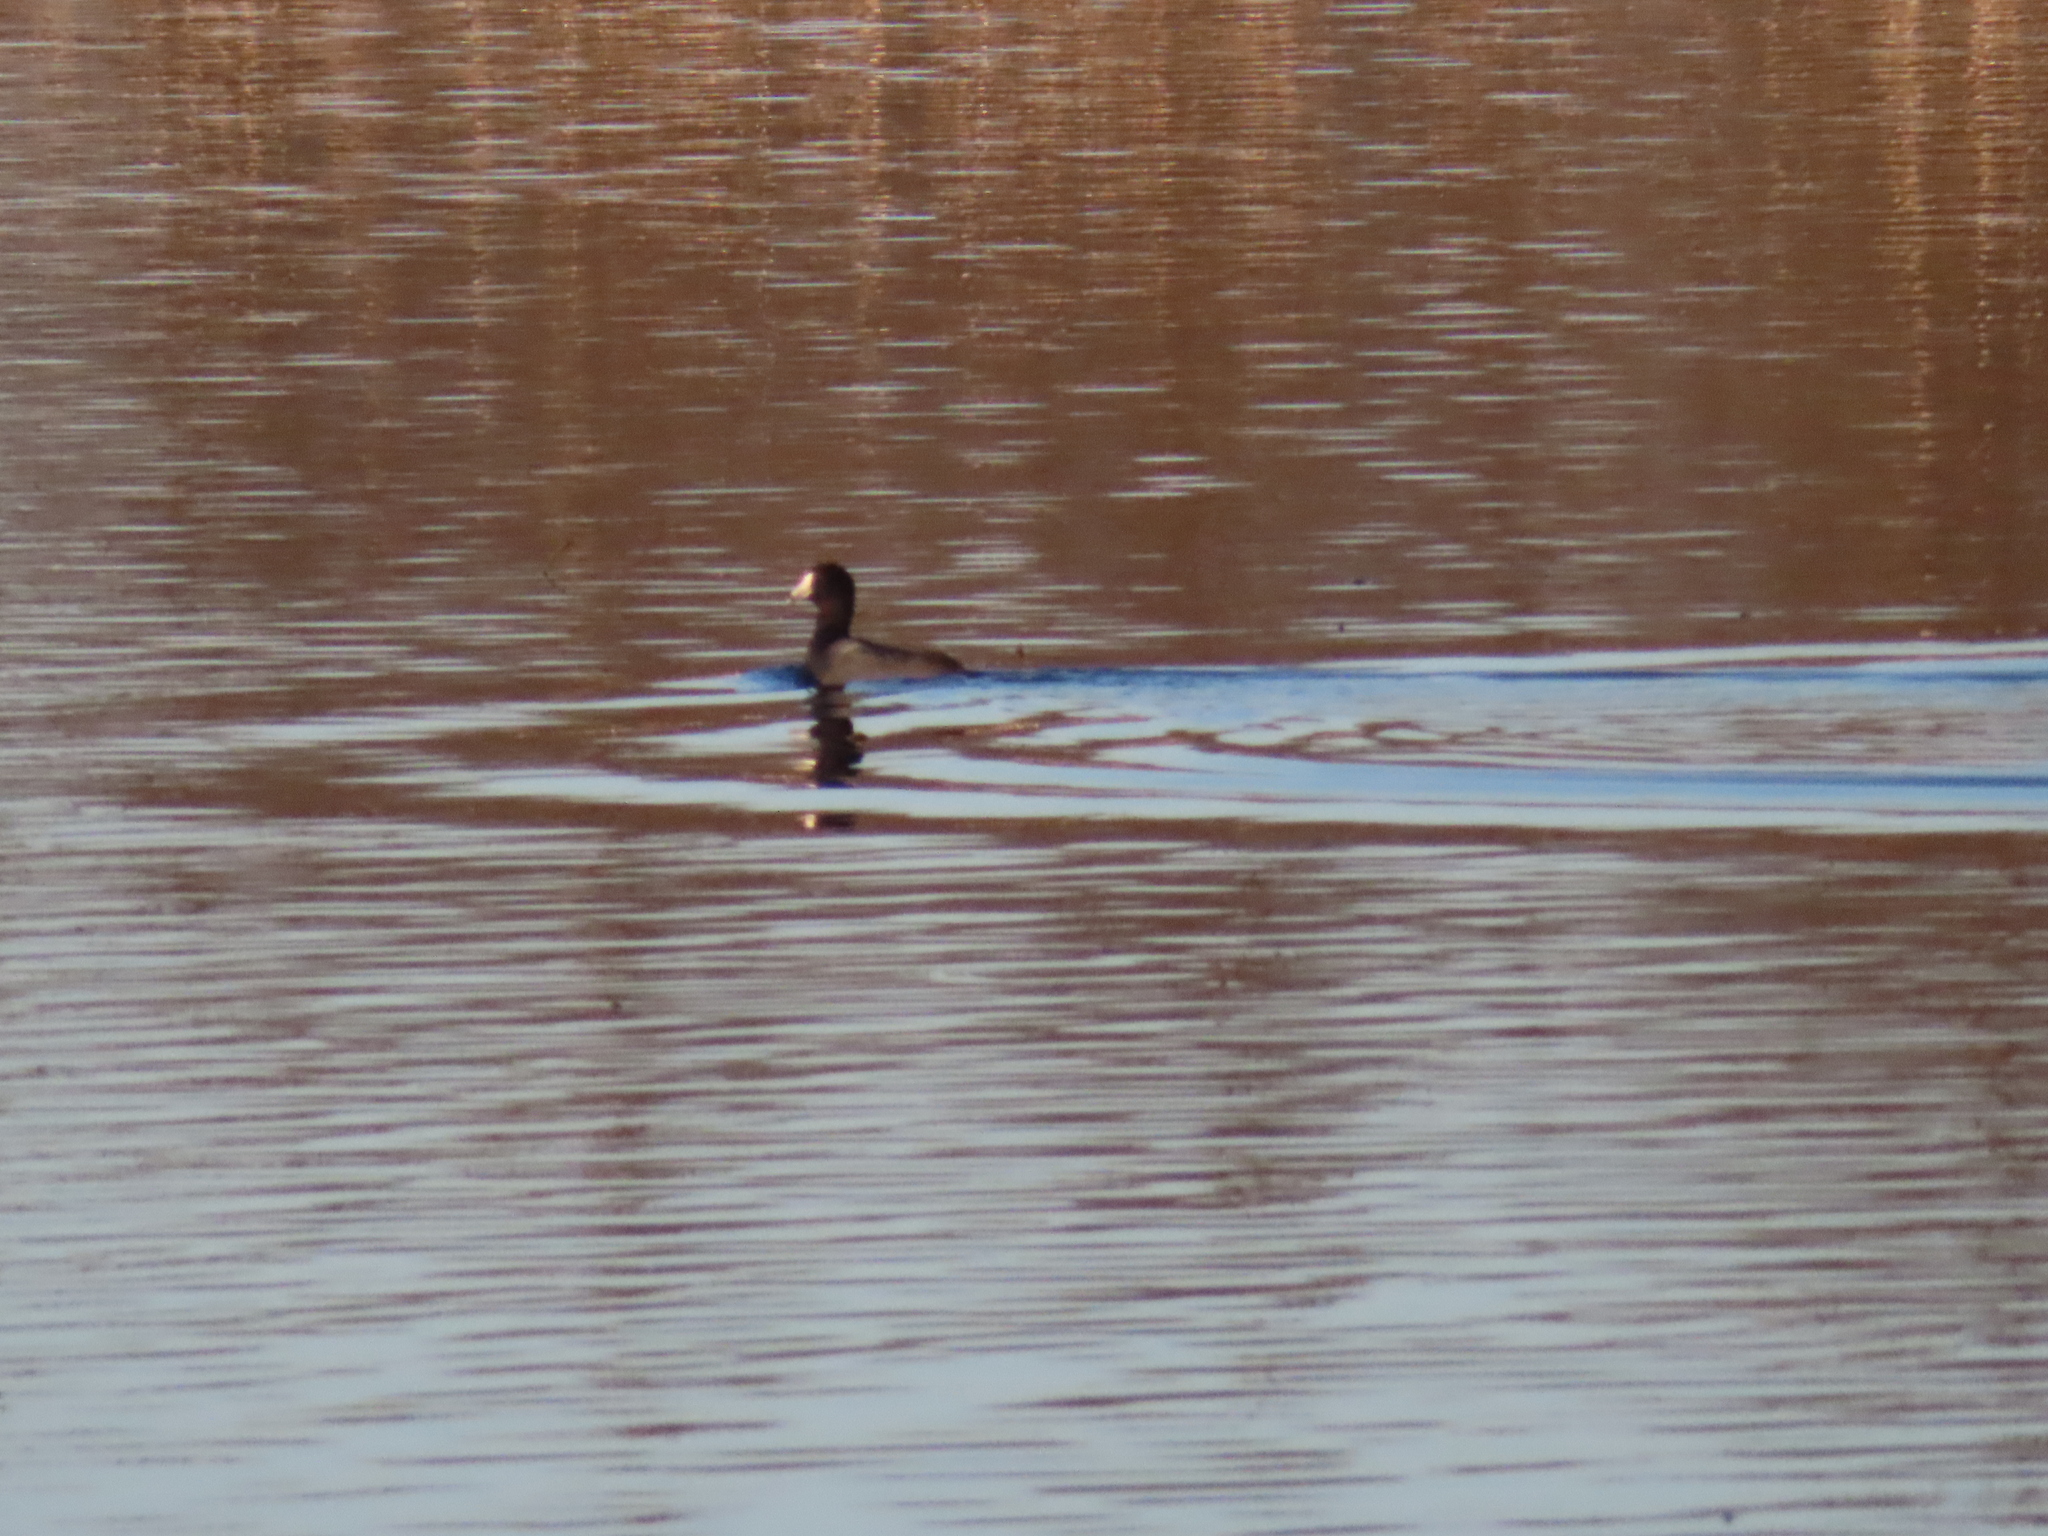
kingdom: Animalia
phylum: Chordata
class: Aves
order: Gruiformes
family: Rallidae
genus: Fulica
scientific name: Fulica americana
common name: American coot
